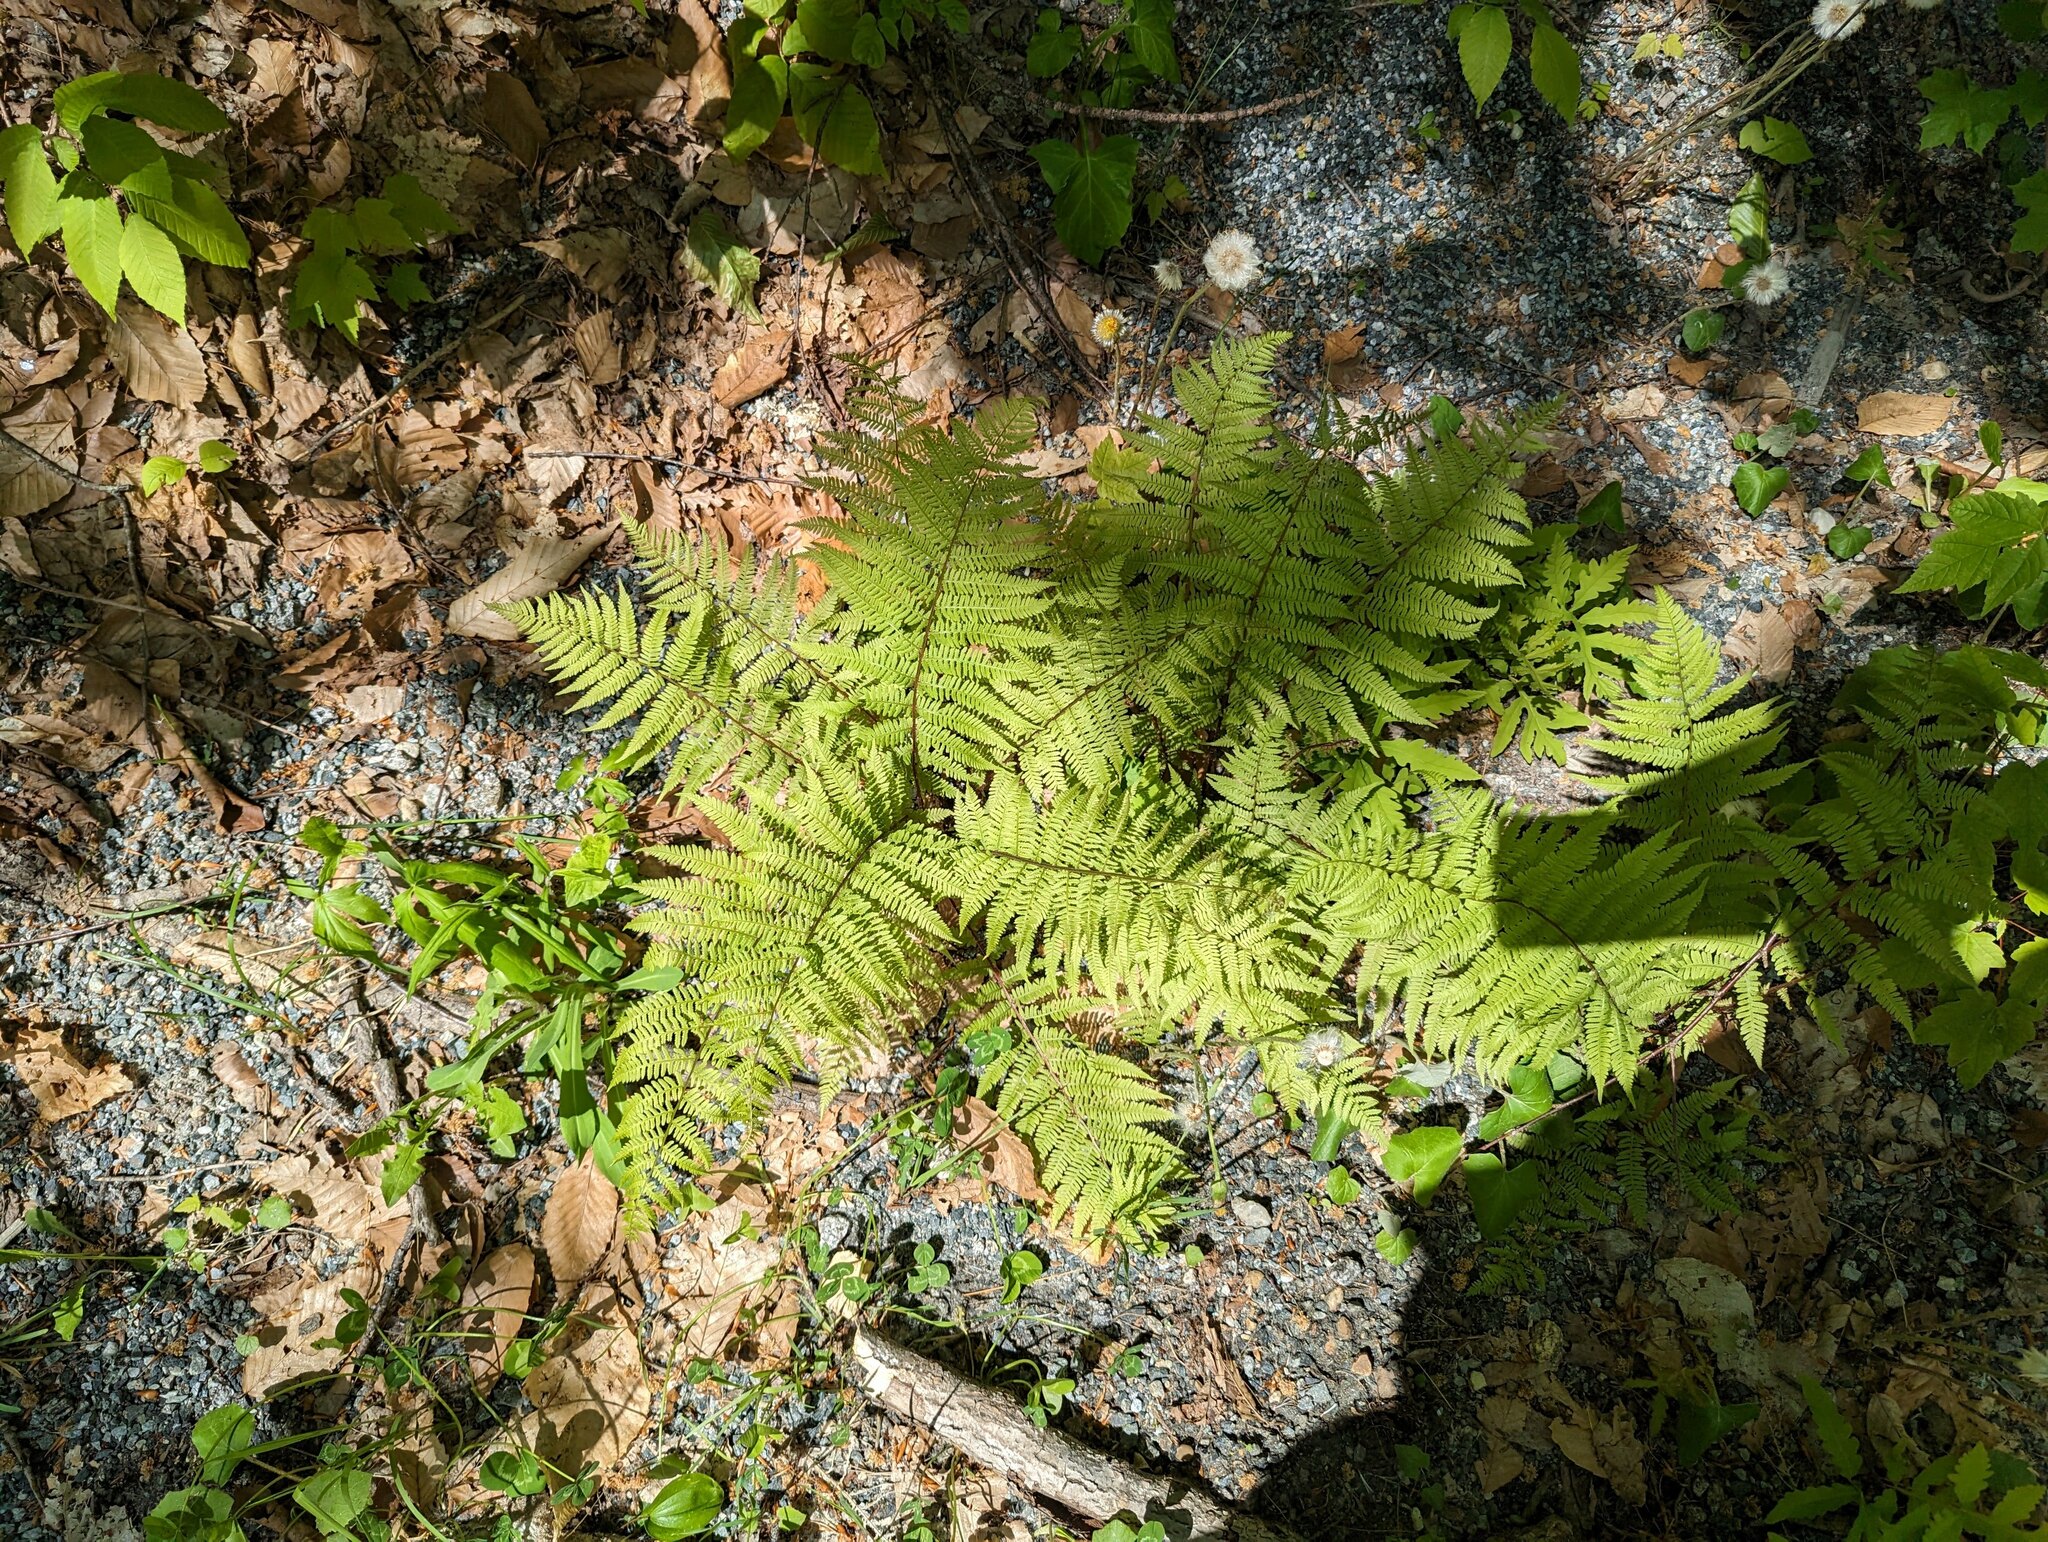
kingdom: Plantae
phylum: Tracheophyta
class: Polypodiopsida
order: Polypodiales
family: Athyriaceae
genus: Athyrium
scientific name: Athyrium angustum
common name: Northern lady fern
